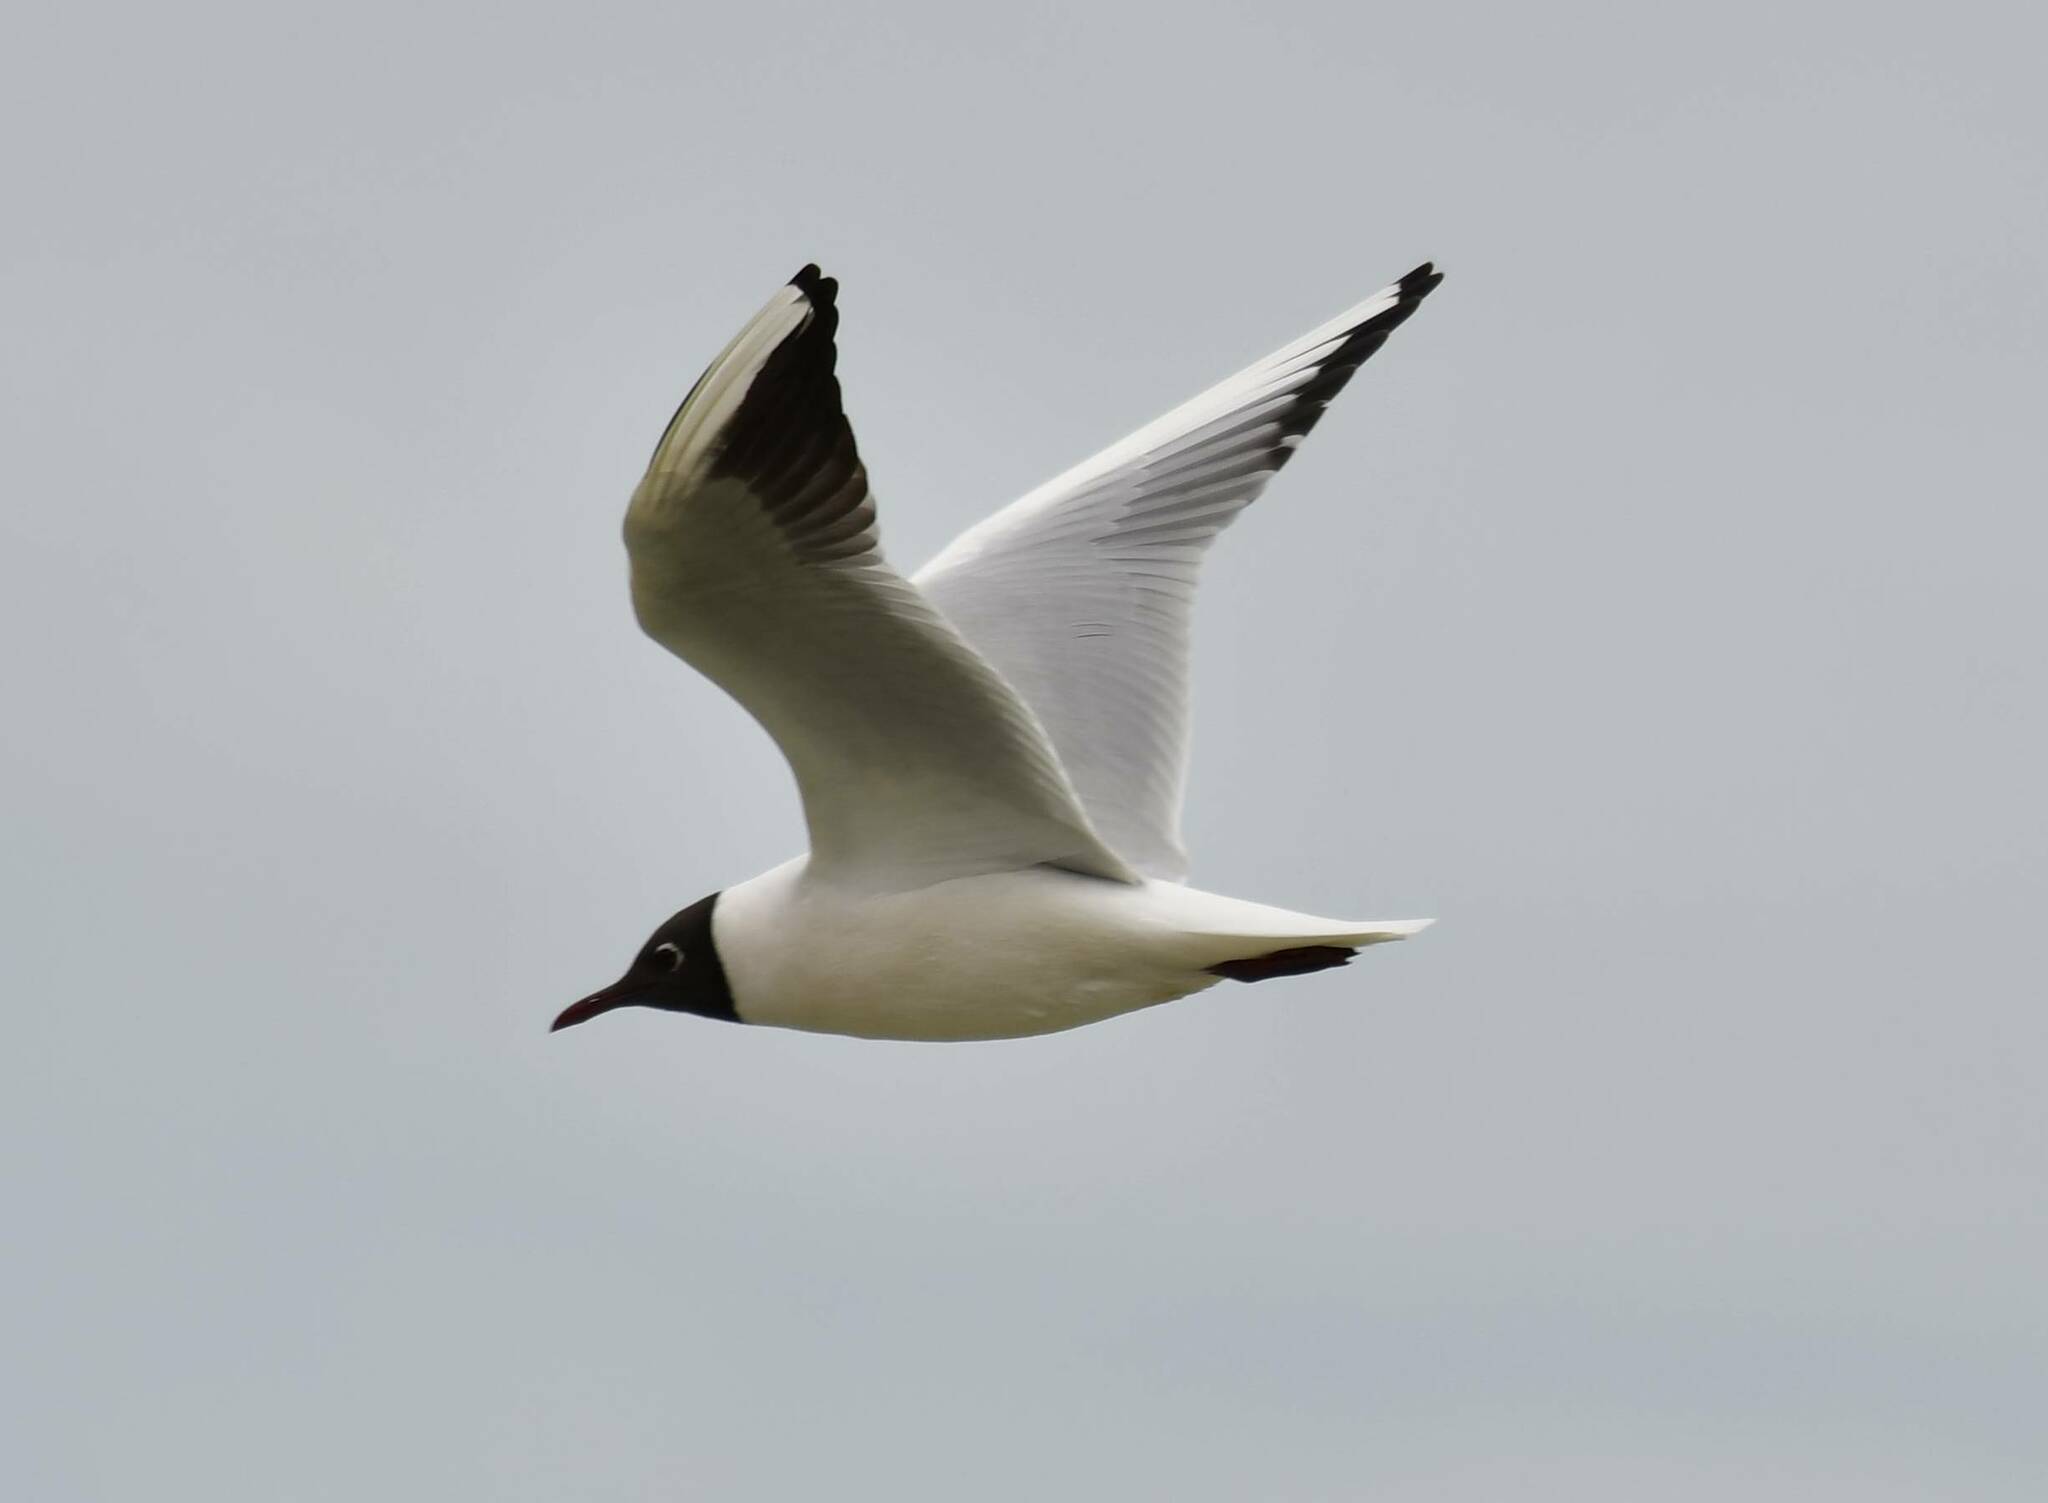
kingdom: Animalia
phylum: Chordata
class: Aves
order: Charadriiformes
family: Laridae
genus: Chroicocephalus
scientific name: Chroicocephalus ridibundus
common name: Black-headed gull
